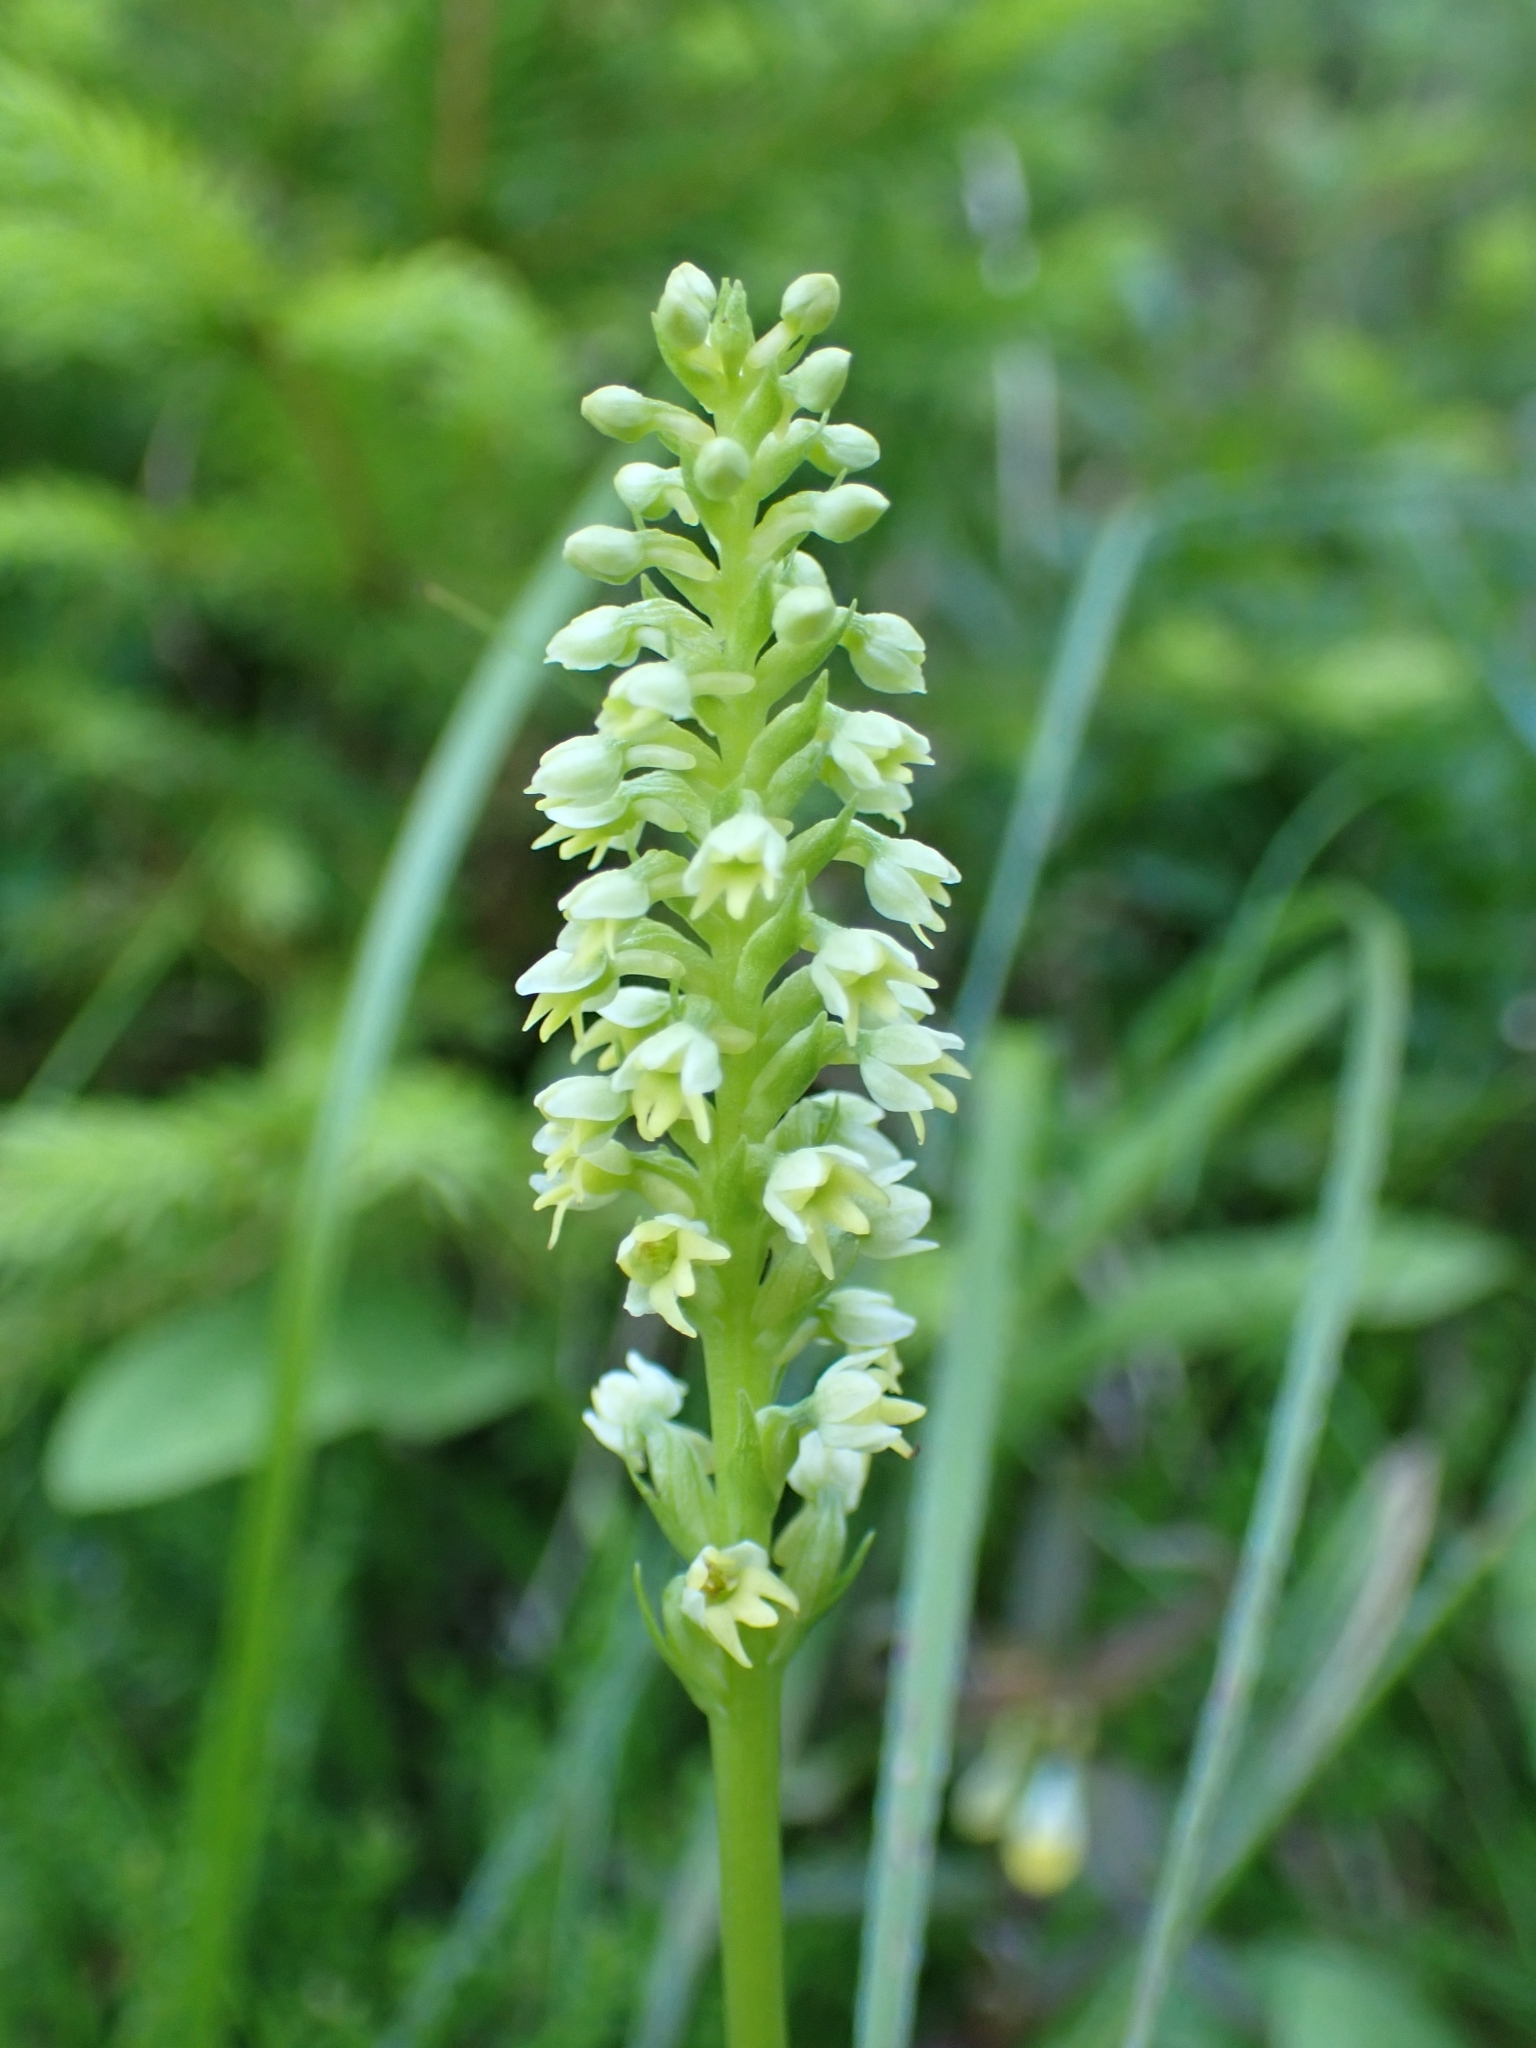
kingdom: Plantae
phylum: Tracheophyta
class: Liliopsida
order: Asparagales
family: Orchidaceae
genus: Pseudorchis
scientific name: Pseudorchis albida
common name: Small-white orchid
